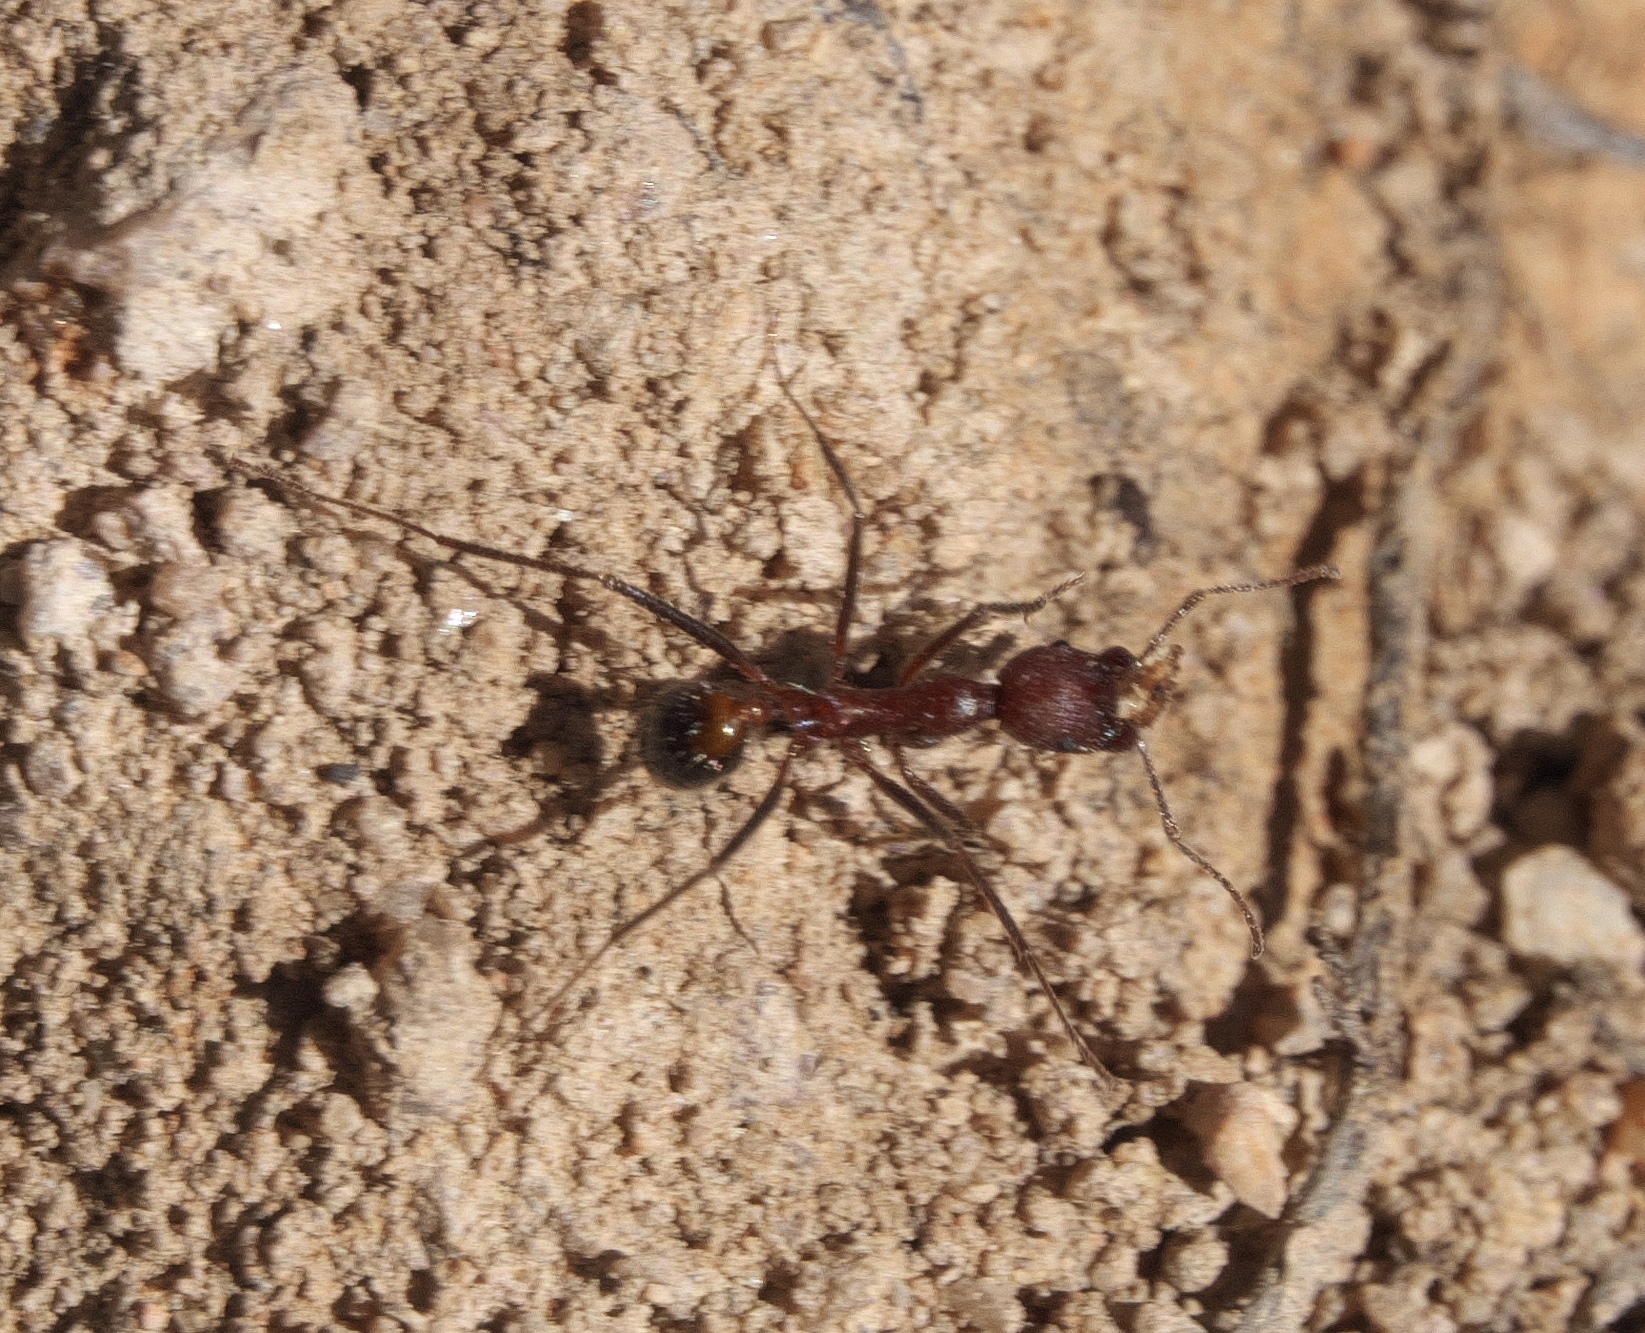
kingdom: Animalia
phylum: Arthropoda
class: Insecta
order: Hymenoptera
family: Formicidae
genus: Novomessor
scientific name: Novomessor albisetosa
